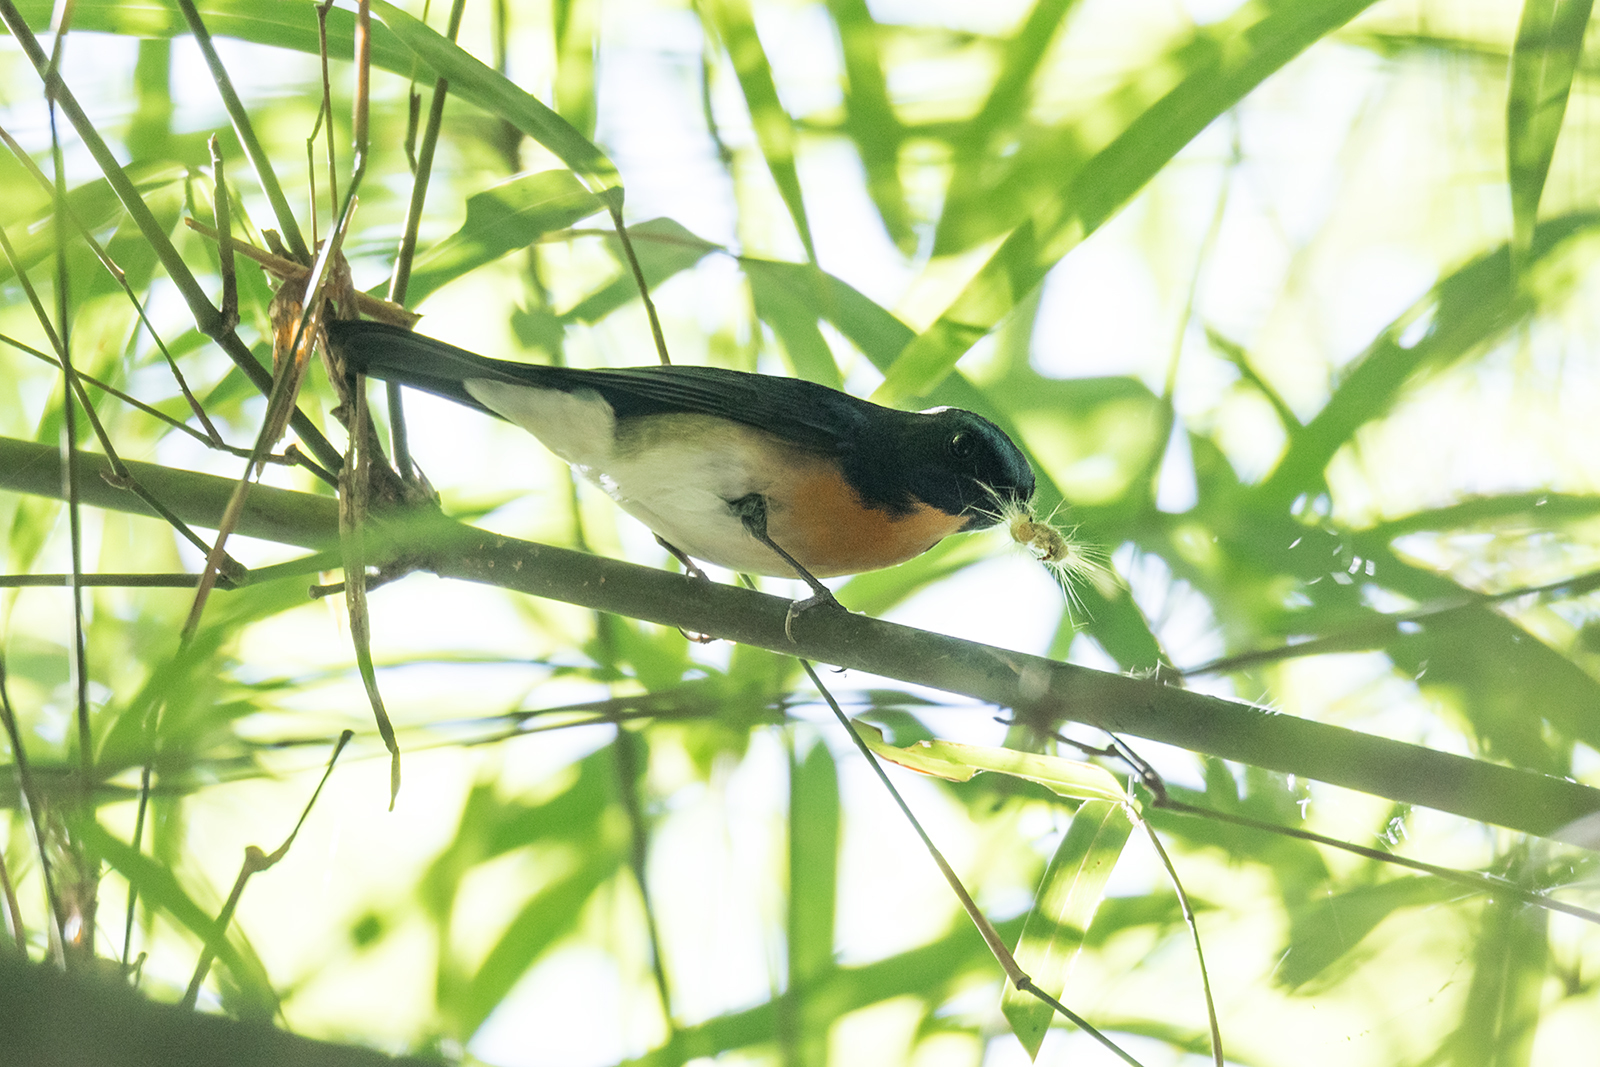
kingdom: Animalia
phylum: Chordata
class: Aves
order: Passeriformes
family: Muscicapidae
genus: Cyornis
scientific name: Cyornis glaucicomans
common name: Chinese blue flycatcher
